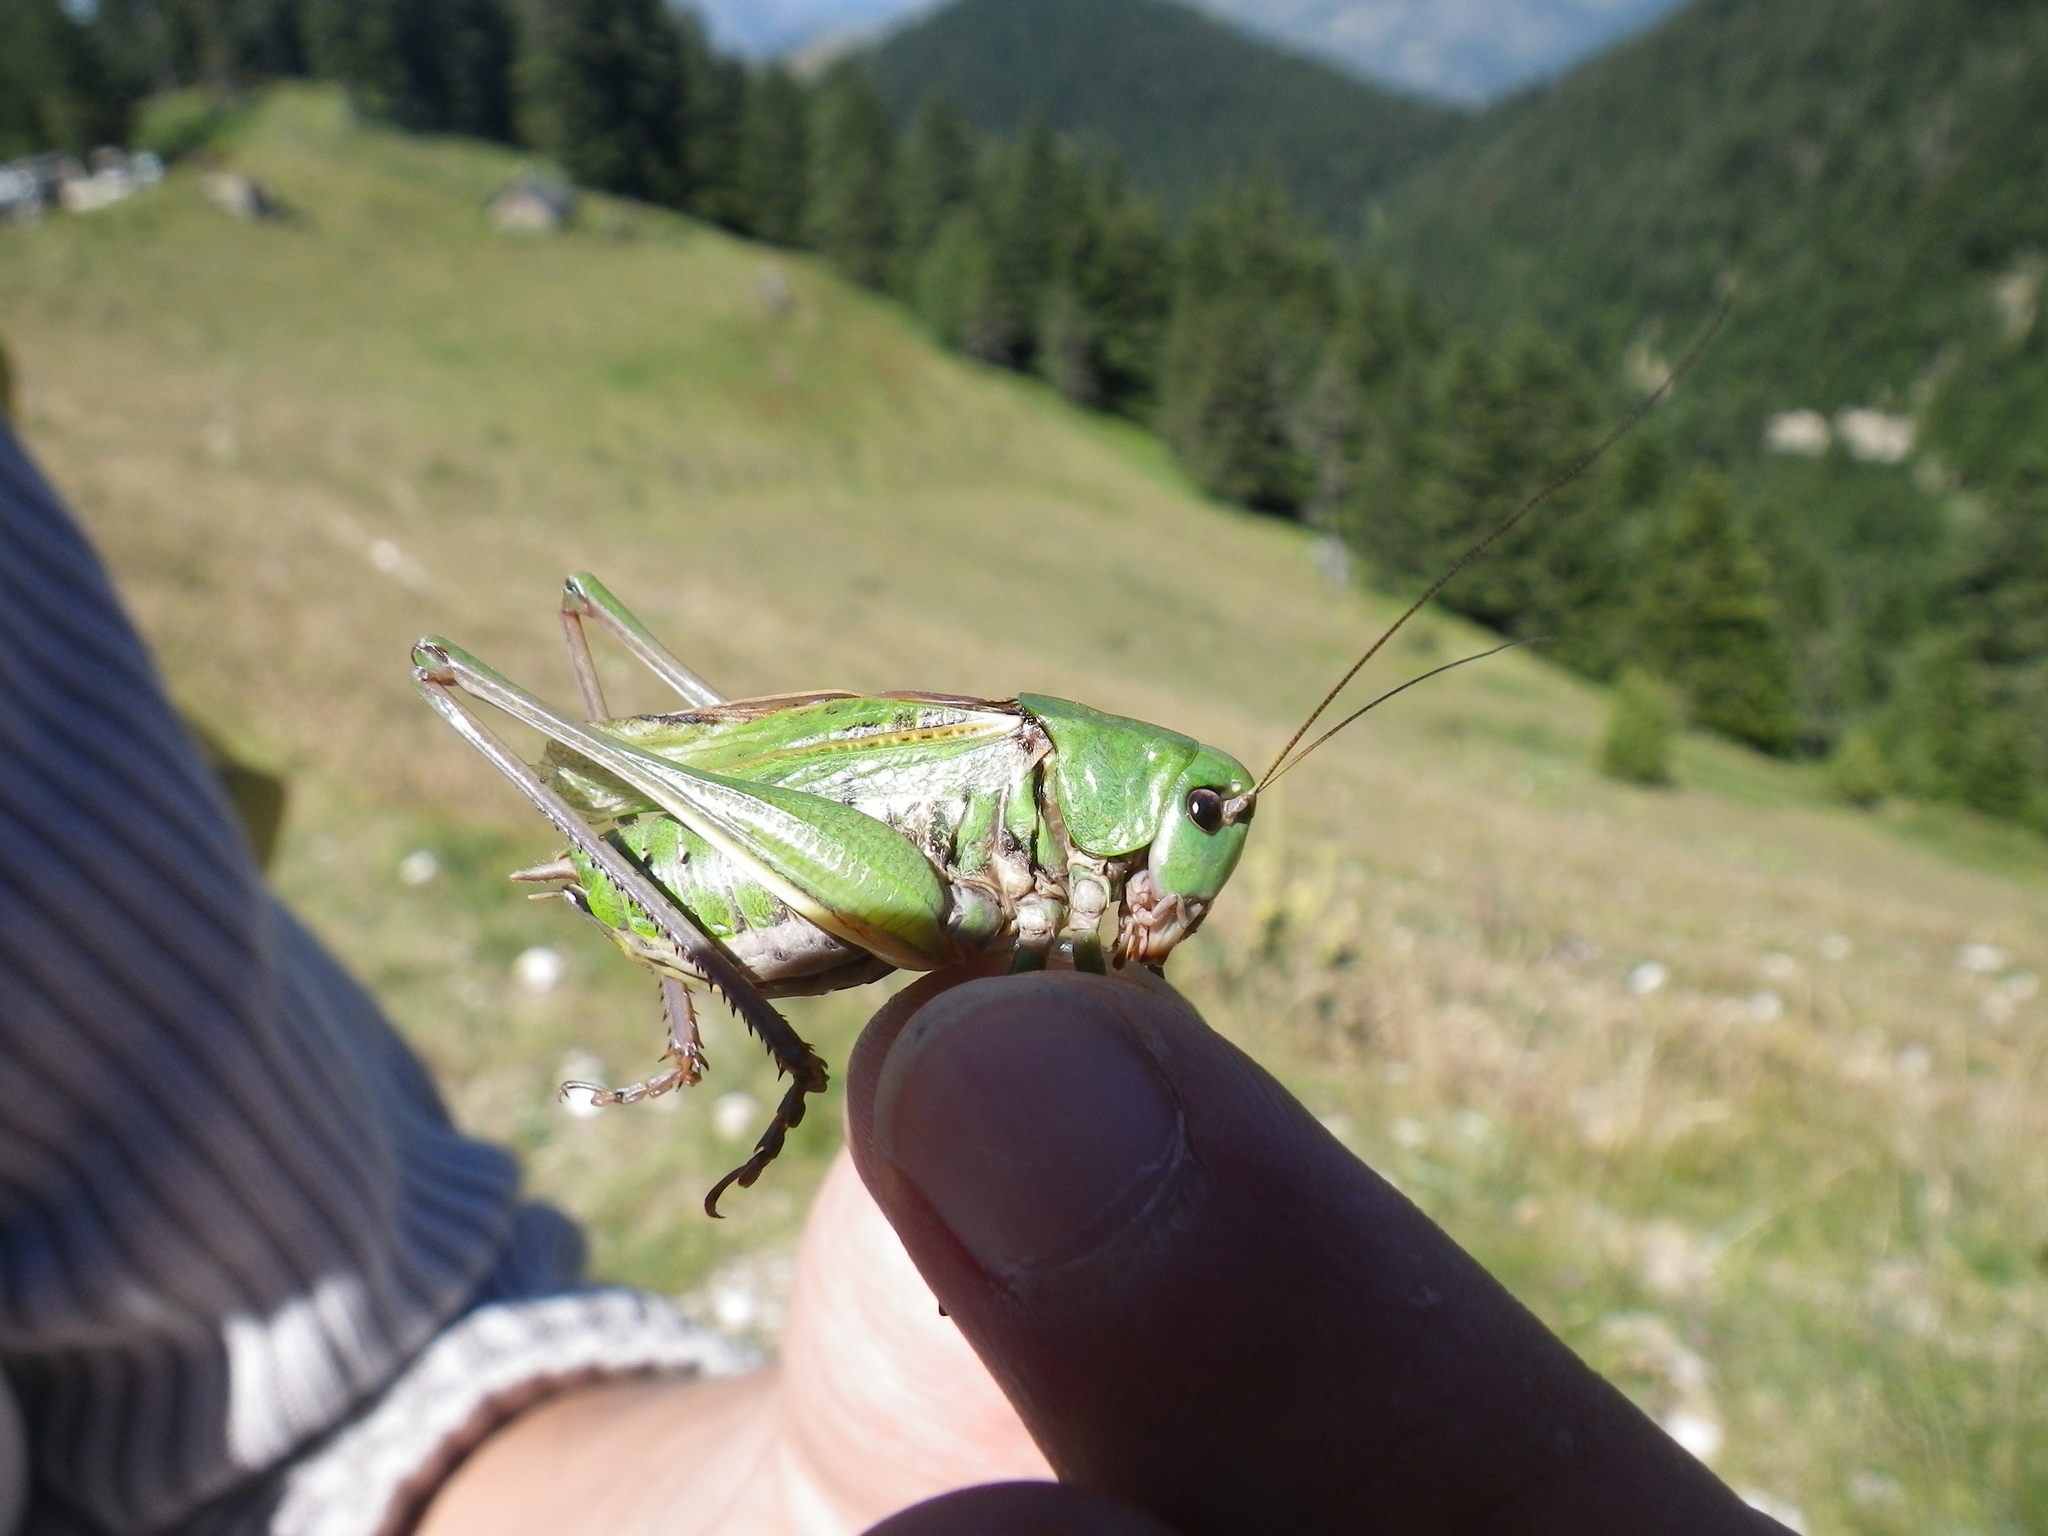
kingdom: Animalia
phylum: Arthropoda
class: Insecta
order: Orthoptera
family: Tettigoniidae
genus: Decticus
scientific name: Decticus verrucivorus
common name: Wart-biter
